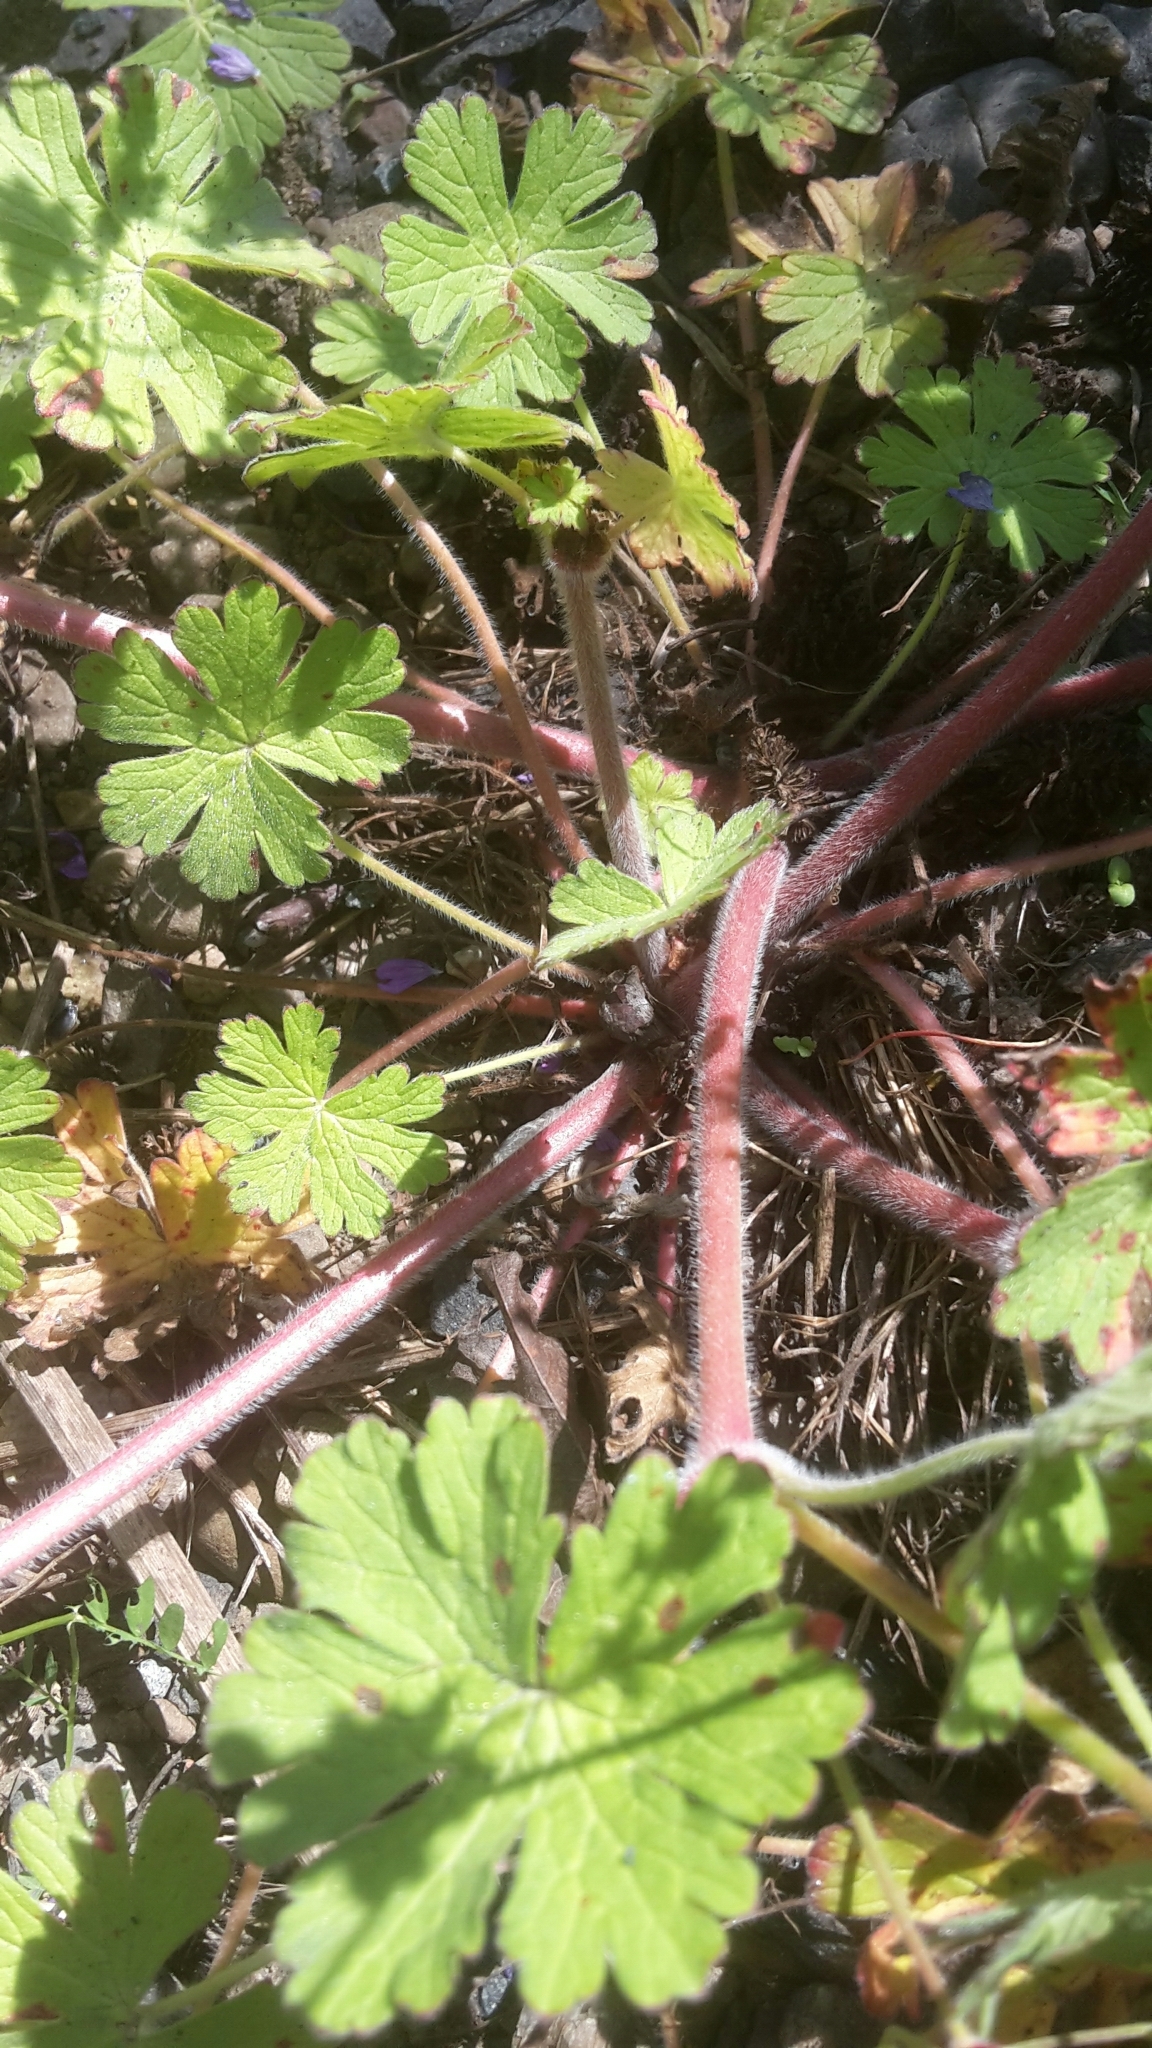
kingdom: Plantae
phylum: Tracheophyta
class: Magnoliopsida
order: Geraniales
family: Geraniaceae
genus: Geranium
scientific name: Geranium pyrenaicum
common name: Hedgerow crane's-bill
